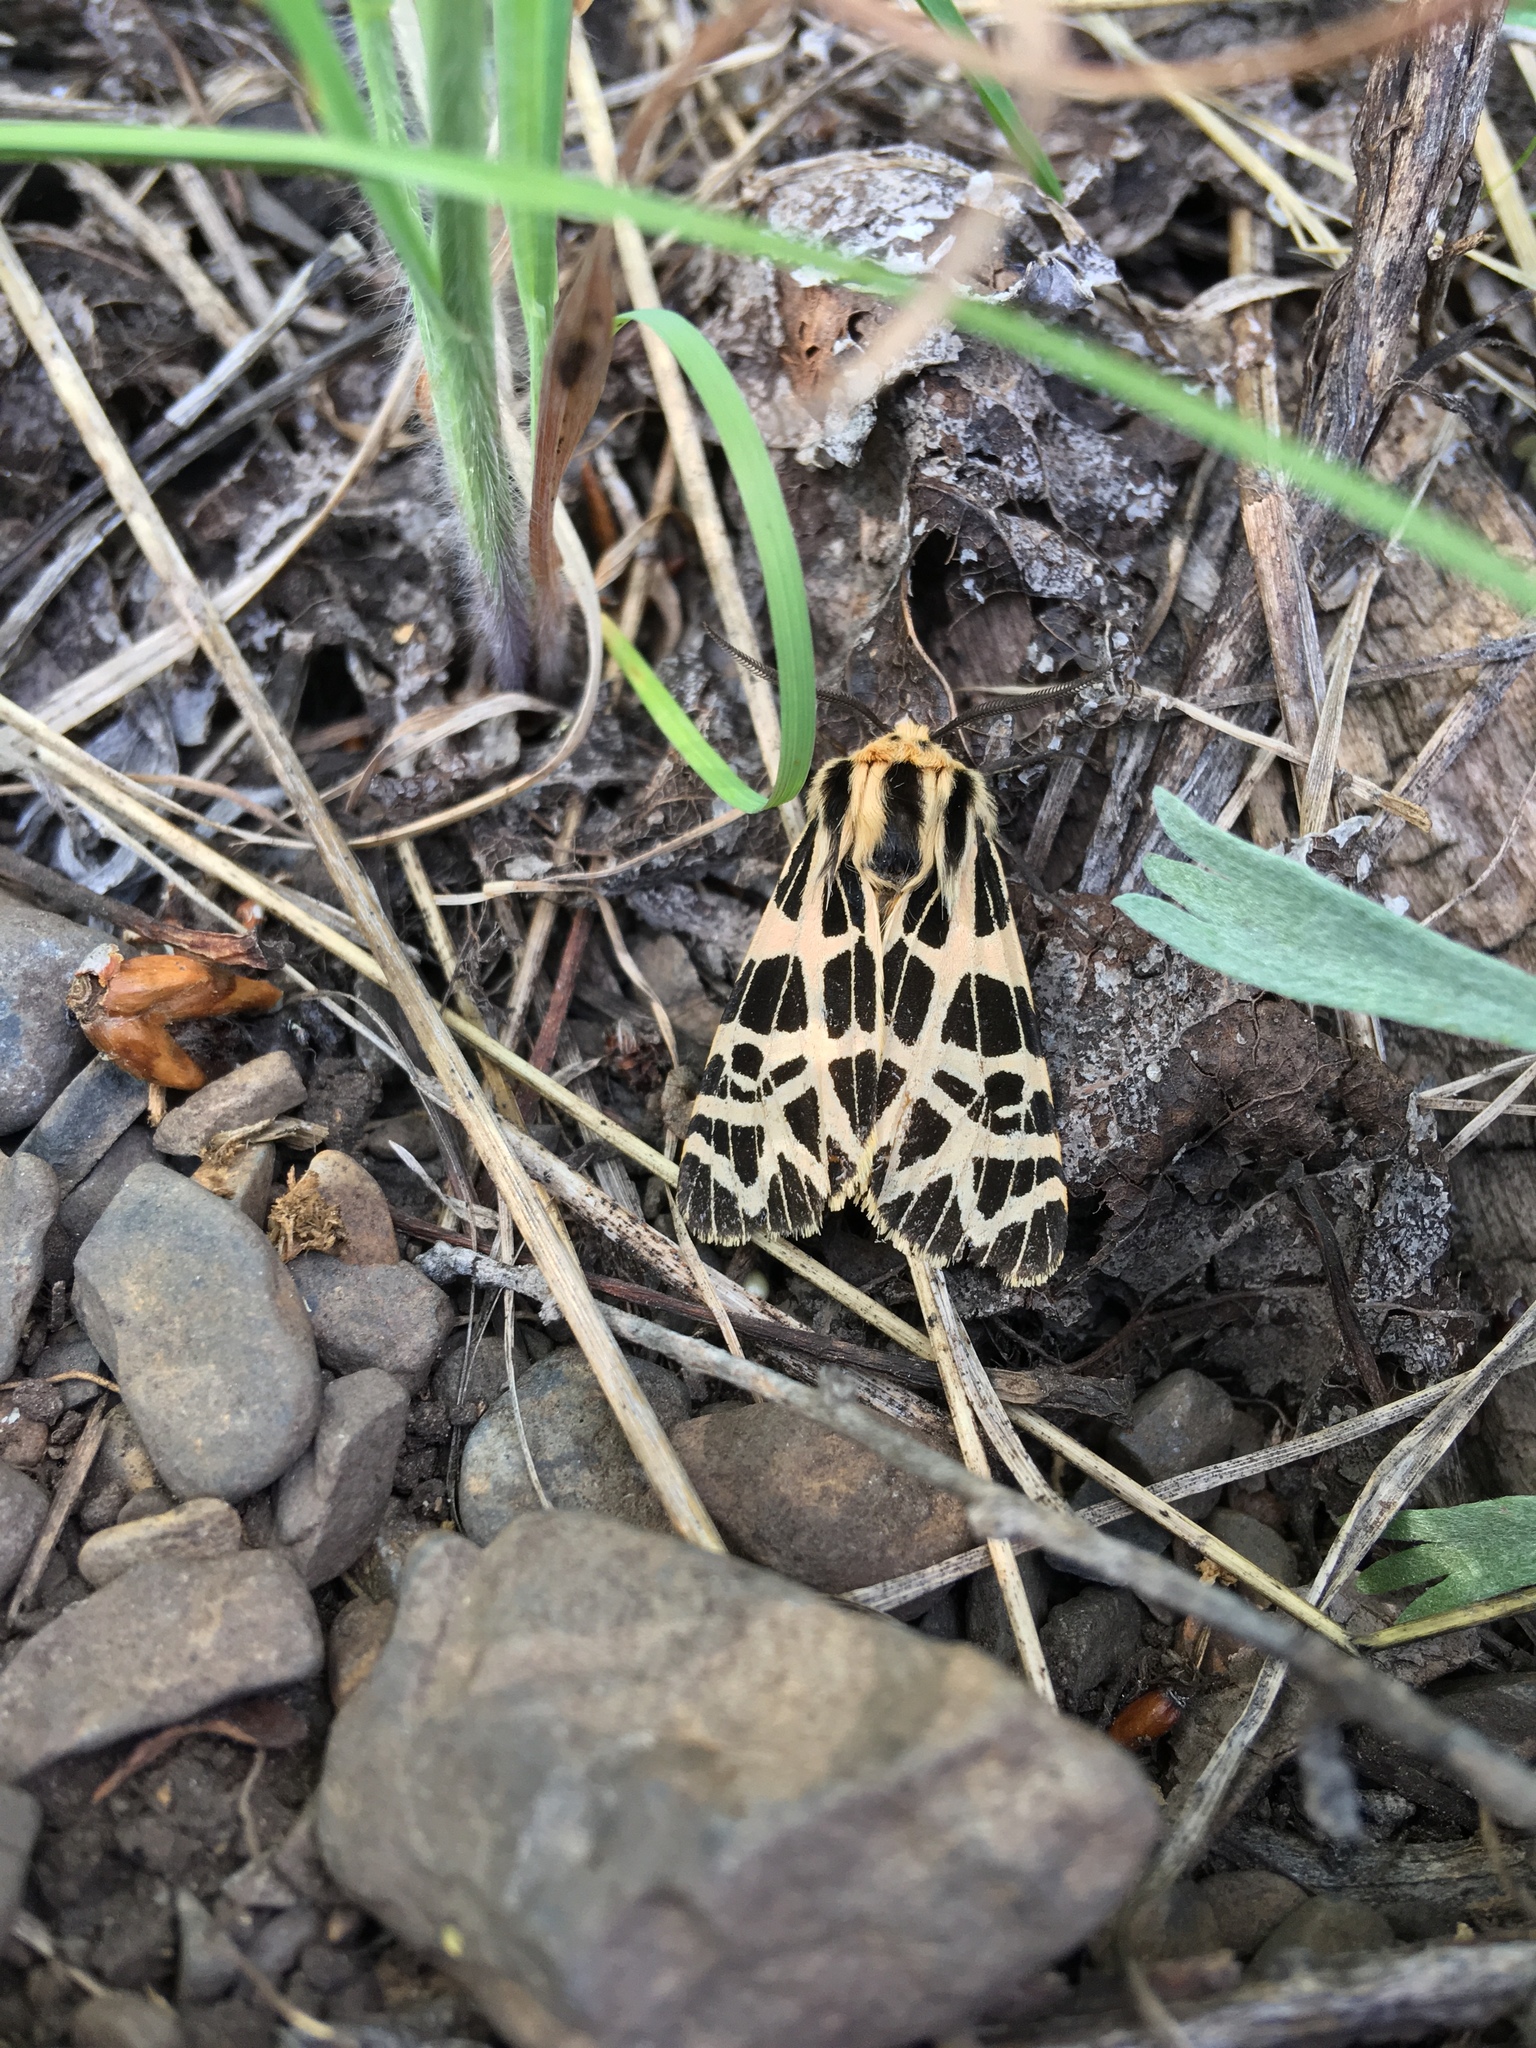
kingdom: Animalia
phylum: Arthropoda
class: Insecta
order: Lepidoptera
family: Erebidae
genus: Apantesis
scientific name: Apantesis
